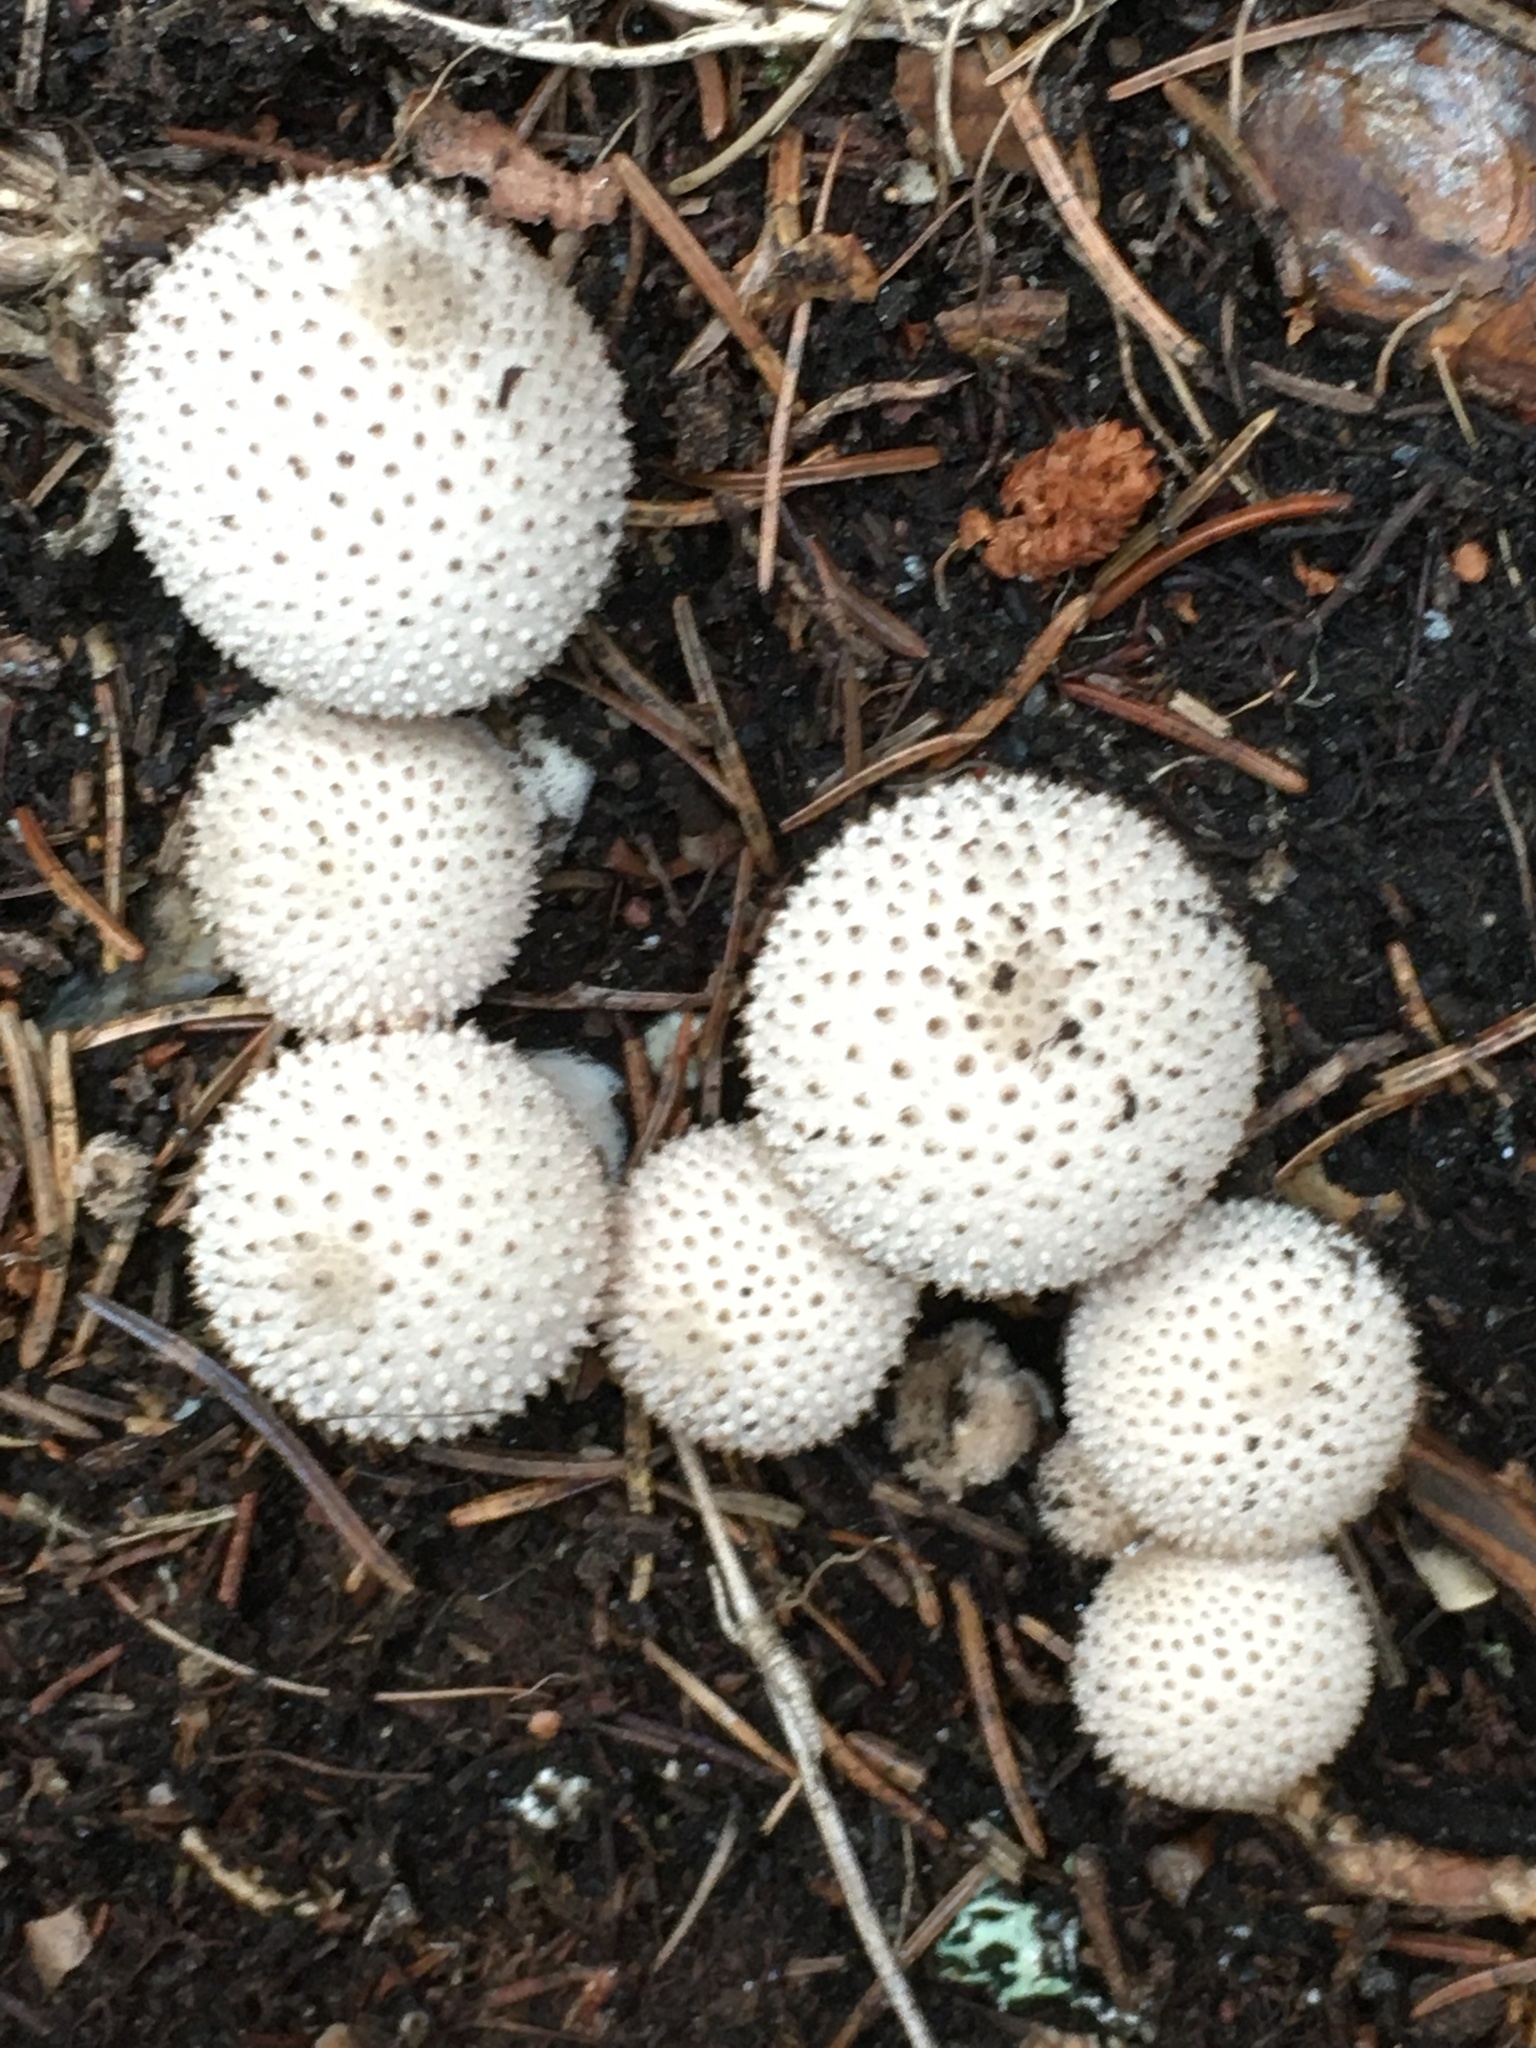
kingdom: Fungi
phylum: Basidiomycota
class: Agaricomycetes
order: Agaricales
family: Lycoperdaceae
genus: Lycoperdon
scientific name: Lycoperdon perlatum
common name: Common puffball
